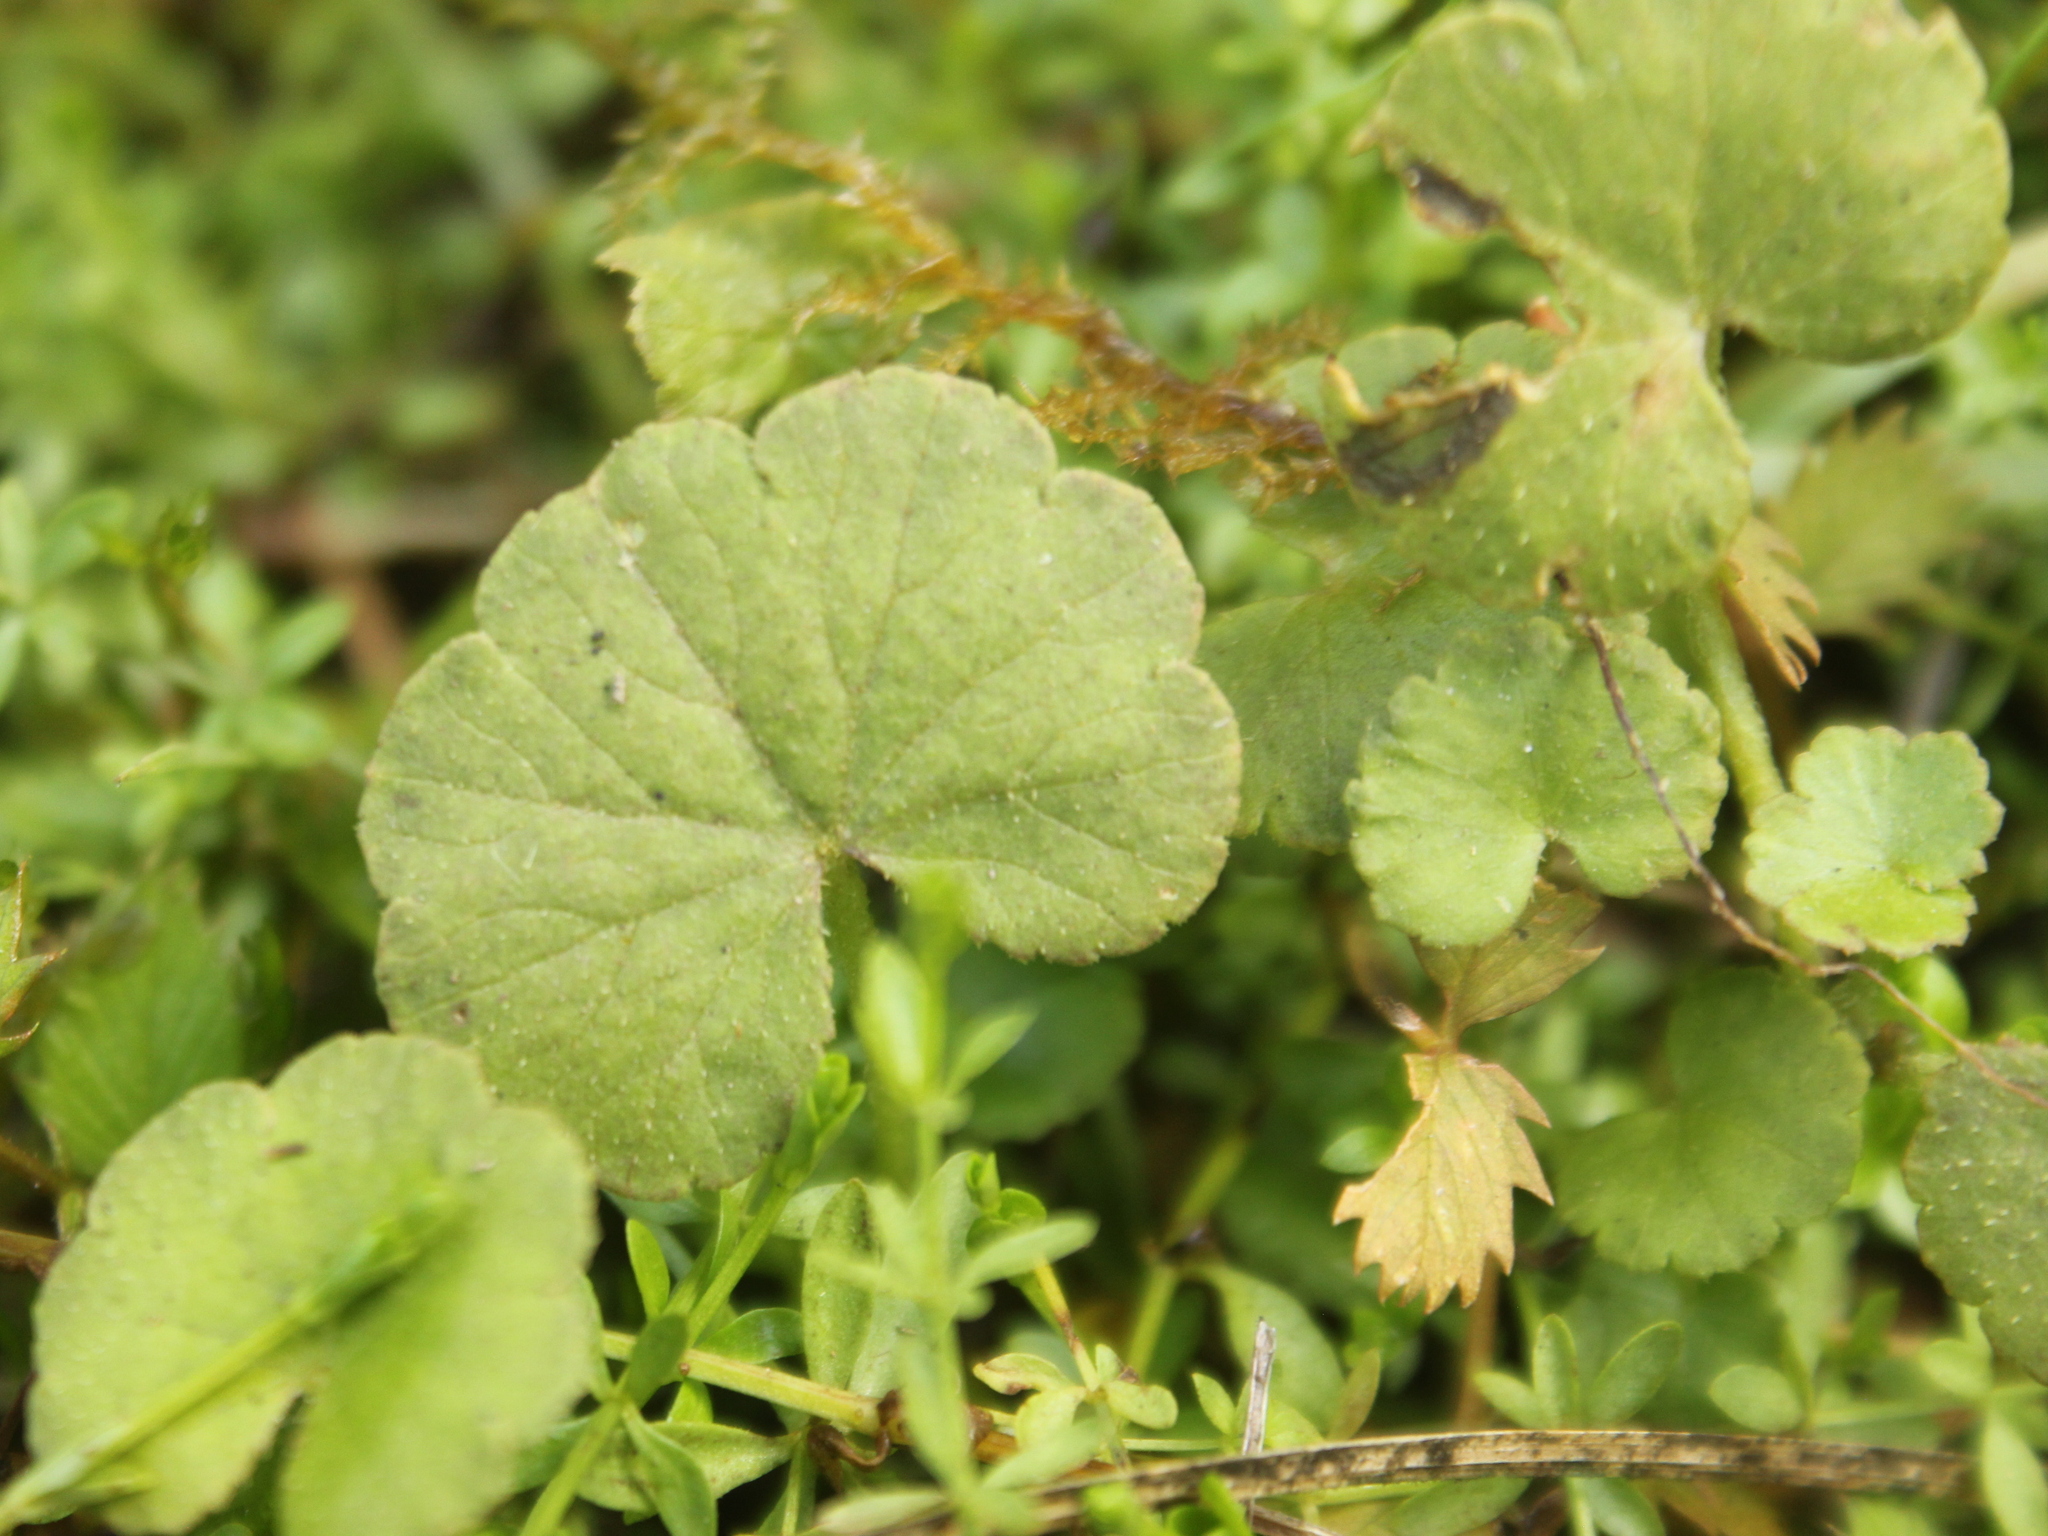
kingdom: Plantae
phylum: Tracheophyta
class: Magnoliopsida
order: Apiales
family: Araliaceae
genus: Hydrocotyle
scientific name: Hydrocotyle novae-zeelandiae
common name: New zealand pennywort
